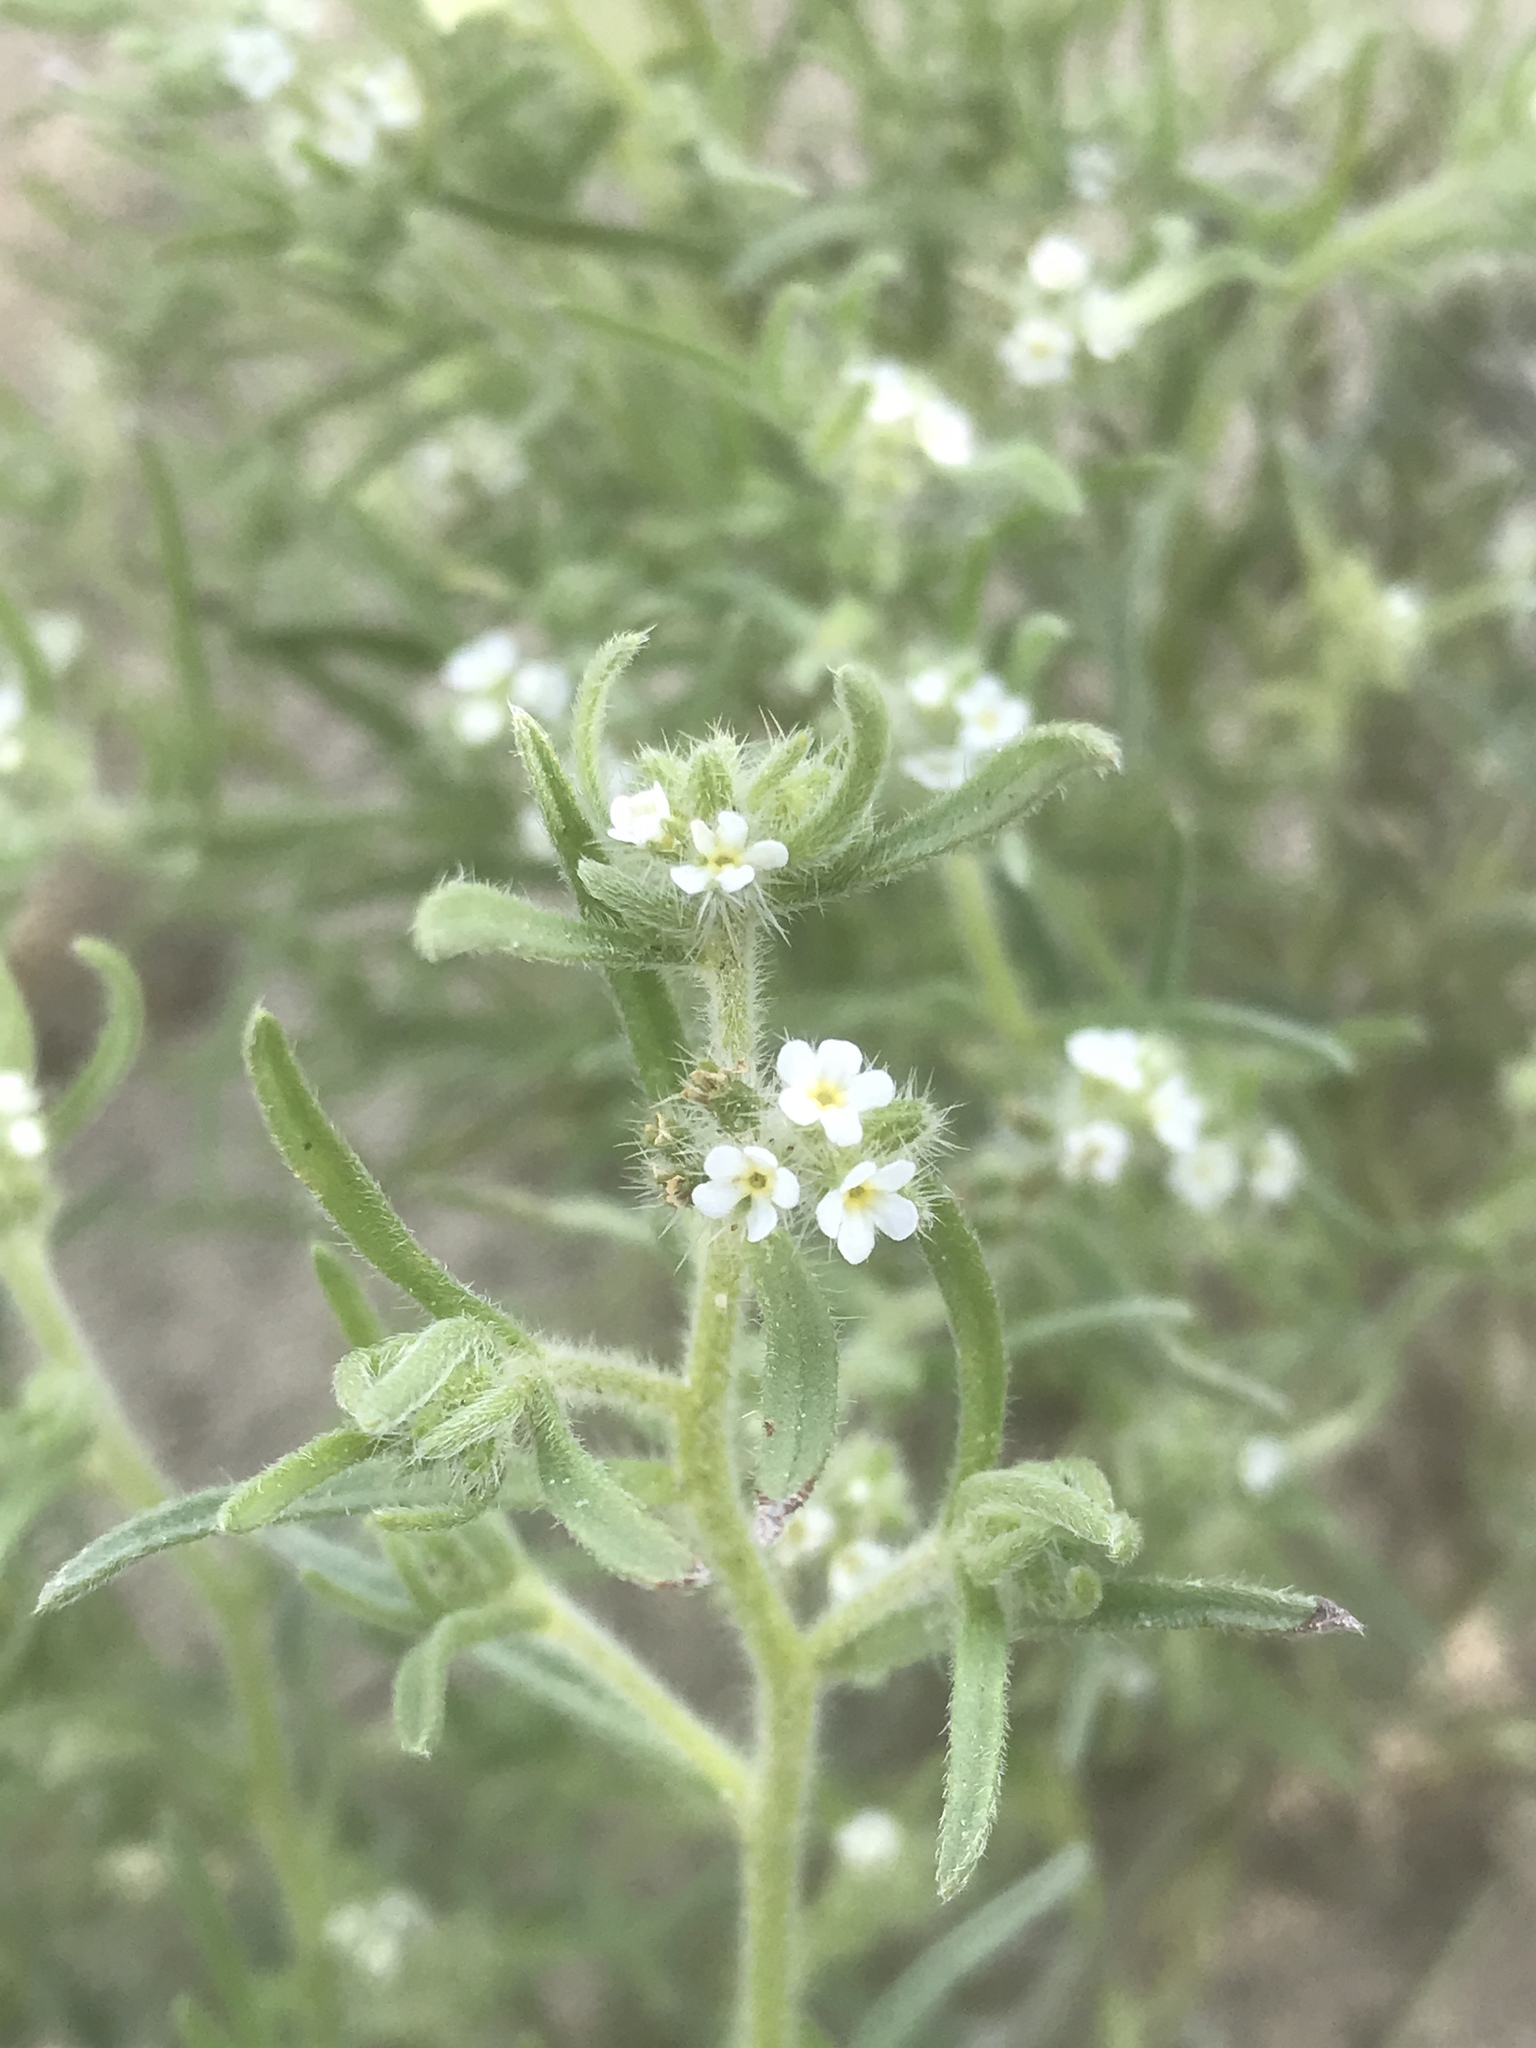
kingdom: Plantae
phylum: Tracheophyta
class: Magnoliopsida
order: Boraginales
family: Boraginaceae
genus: Johnstonella
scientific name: Johnstonella angustifolia
